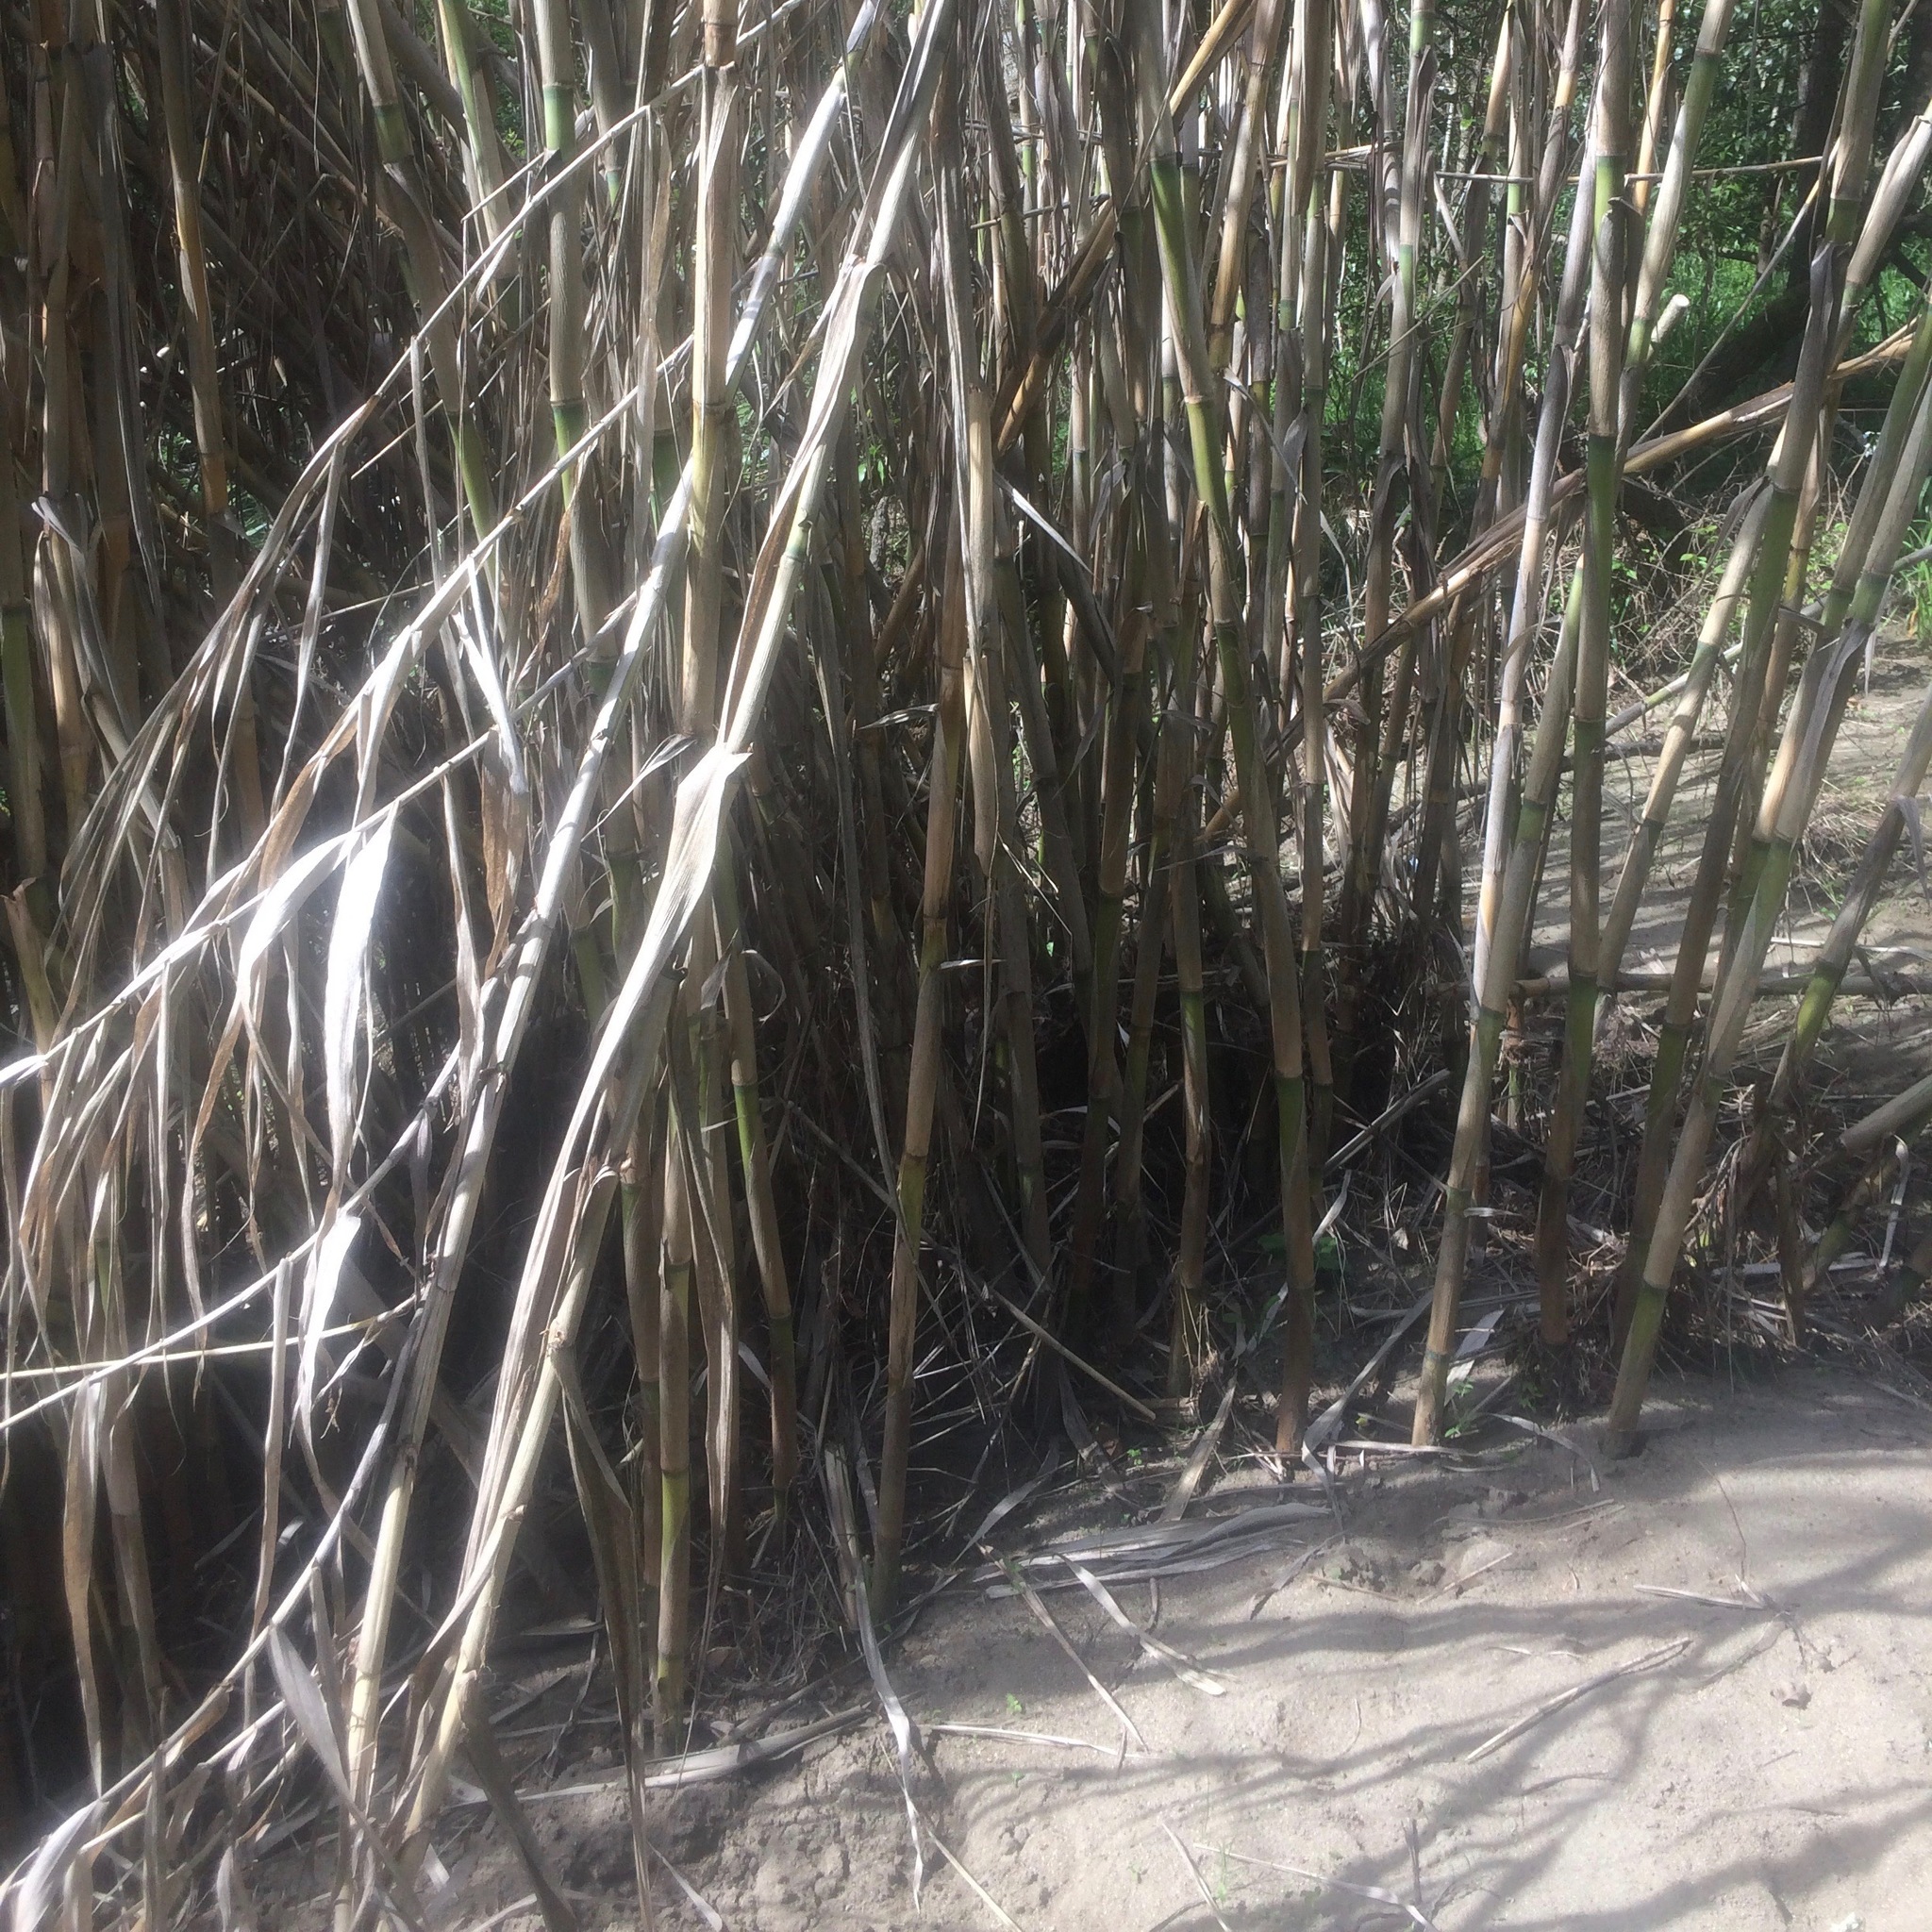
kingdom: Plantae
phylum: Tracheophyta
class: Liliopsida
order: Poales
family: Poaceae
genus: Arundo
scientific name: Arundo donax
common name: Giant reed
